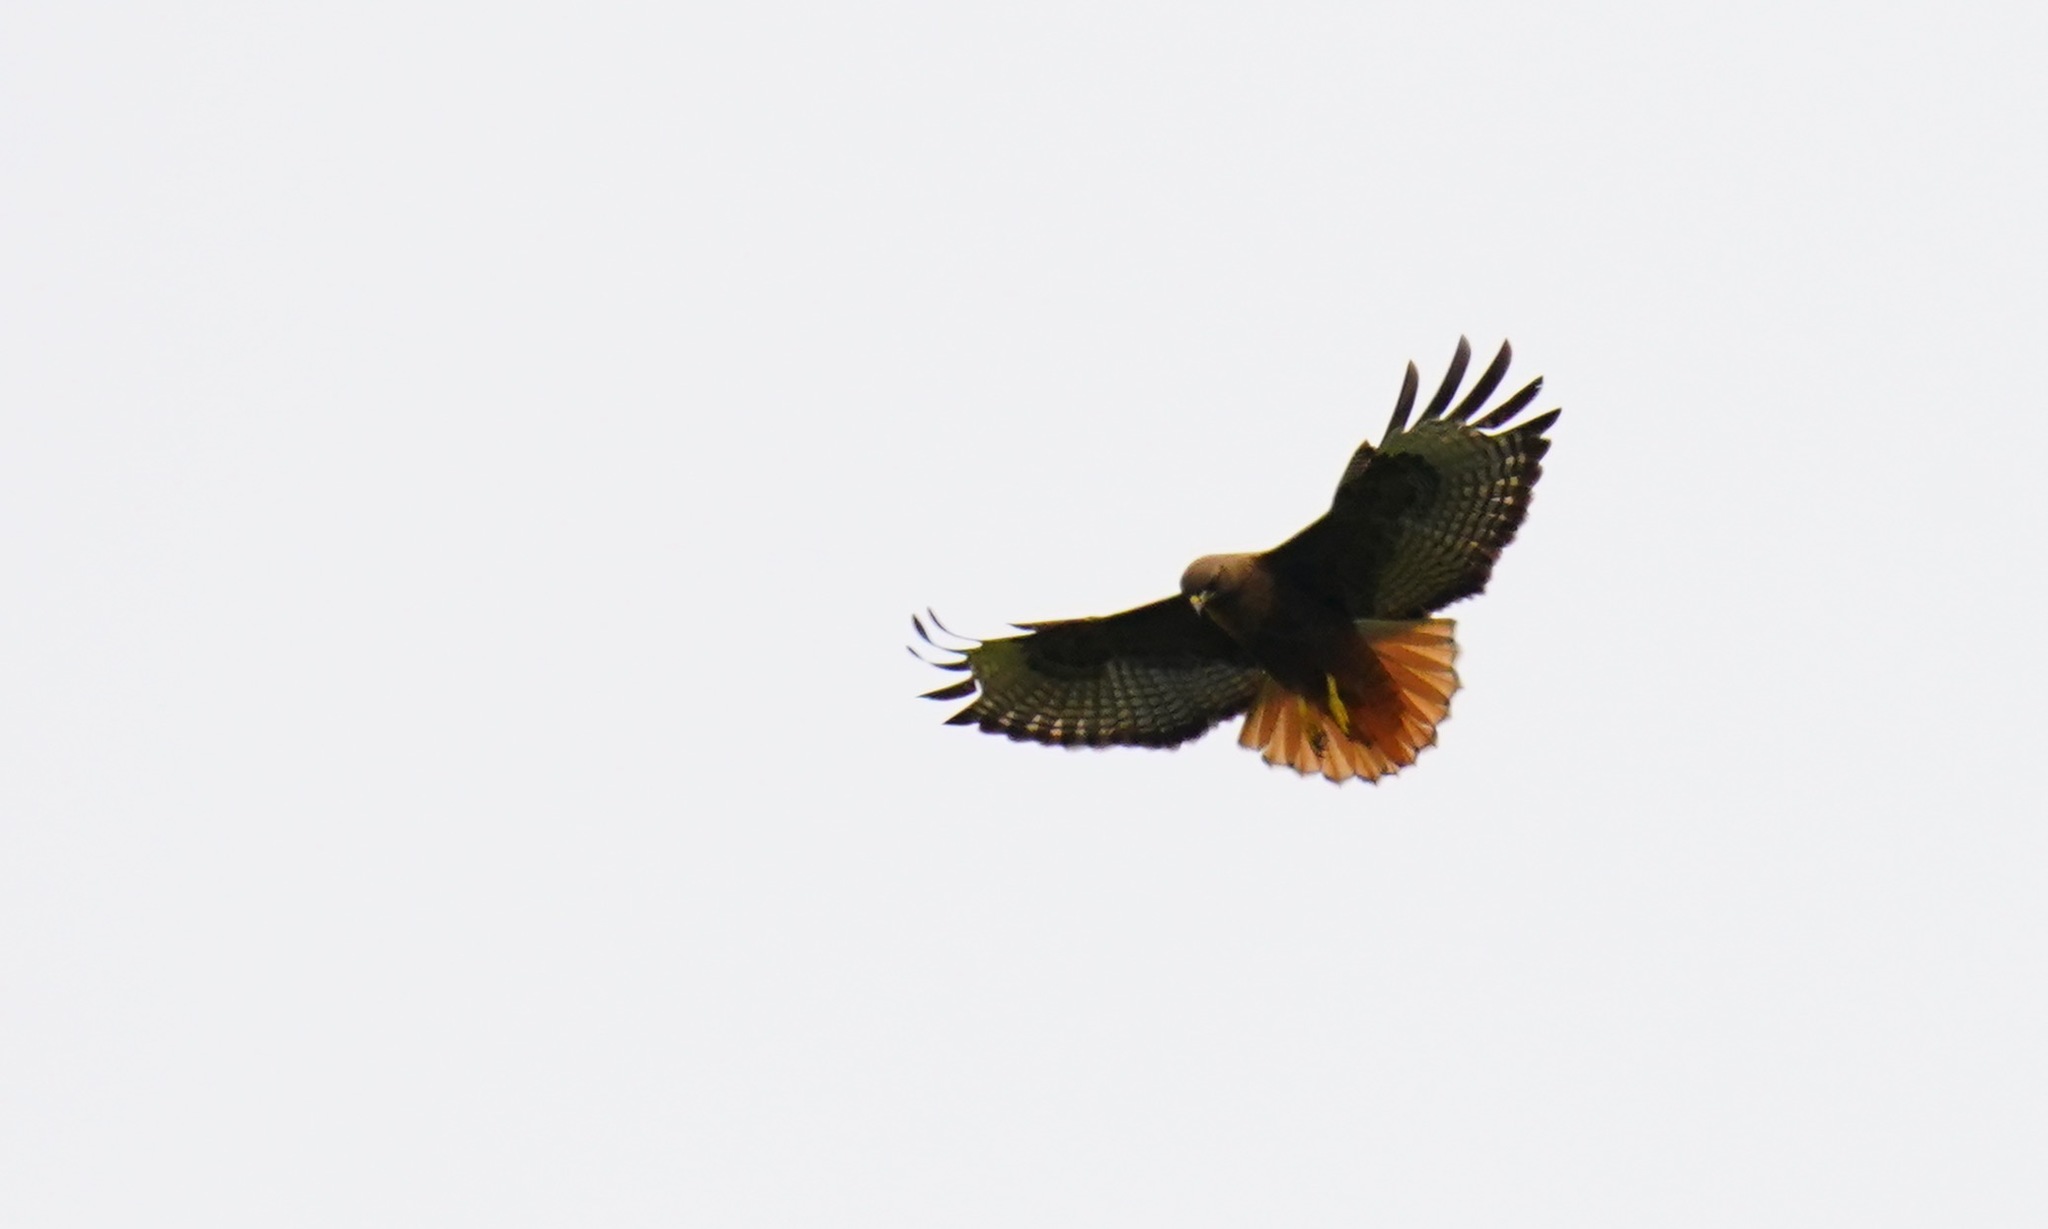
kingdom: Animalia
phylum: Chordata
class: Aves
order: Accipitriformes
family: Accipitridae
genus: Buteo
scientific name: Buteo jamaicensis
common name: Red-tailed hawk
